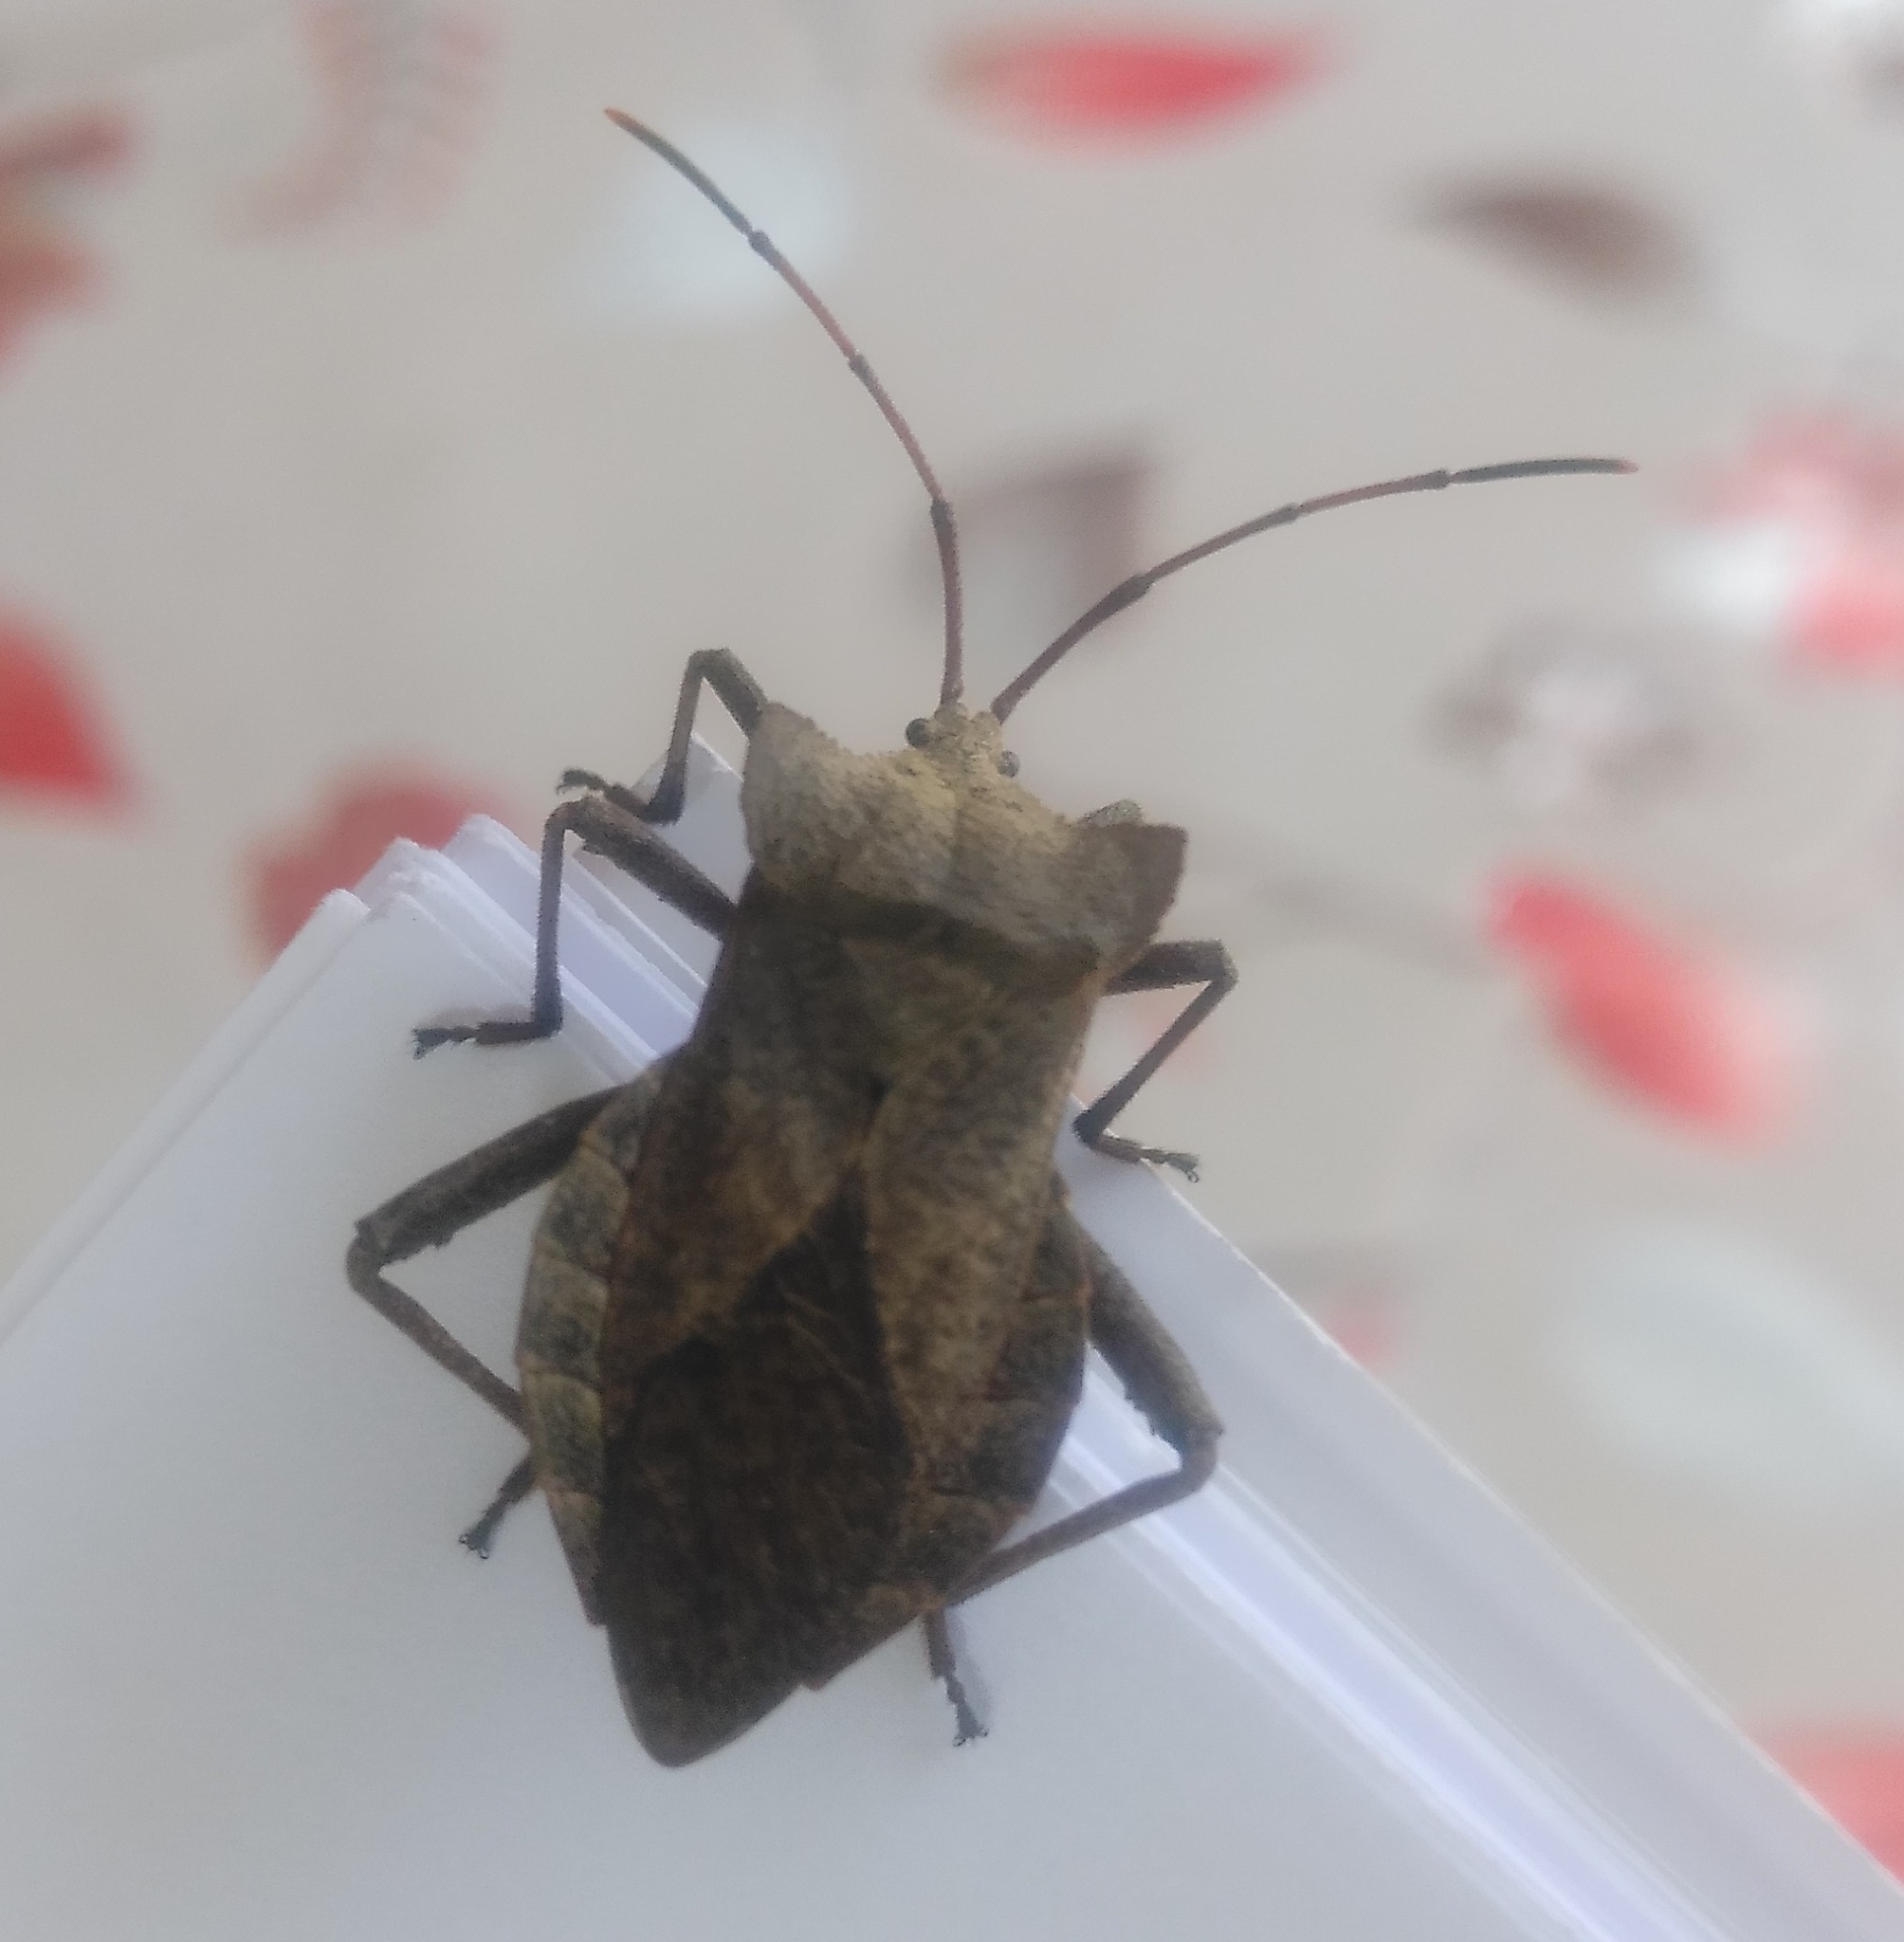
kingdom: Animalia
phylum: Arthropoda
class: Insecta
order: Hemiptera
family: Coreidae
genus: Molipteryx
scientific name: Molipteryx fuliginosa
